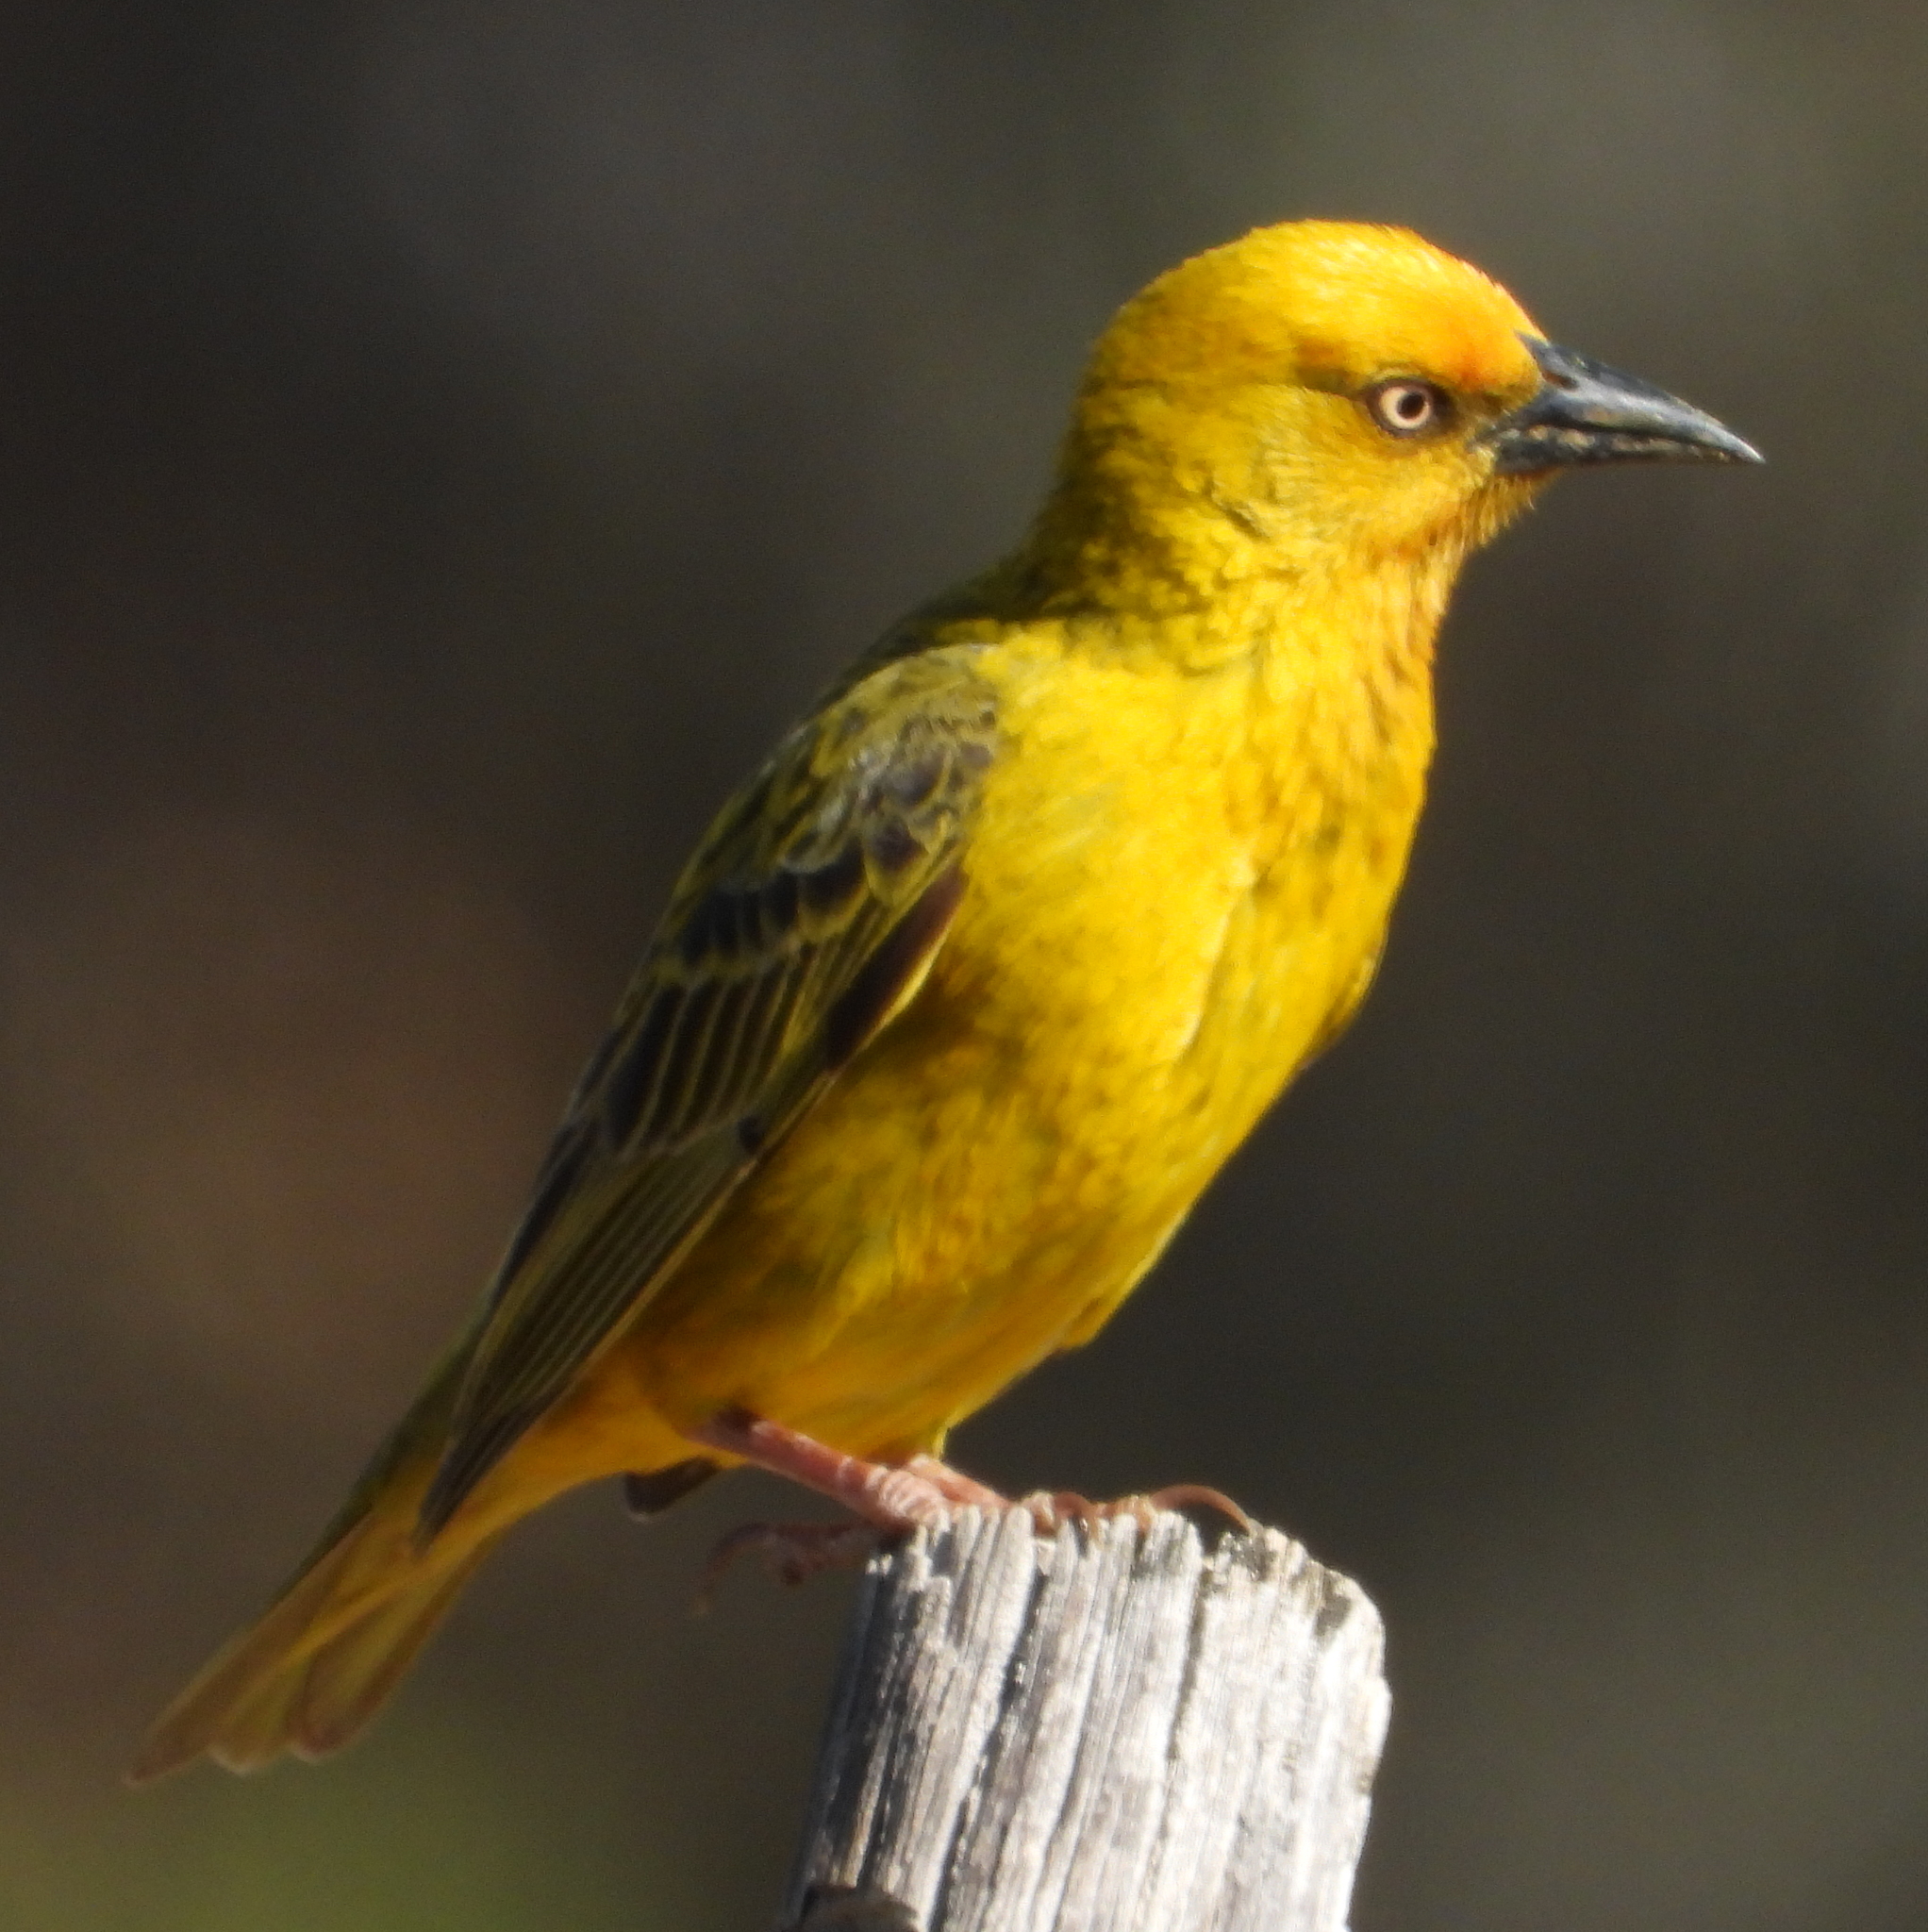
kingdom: Animalia
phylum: Chordata
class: Aves
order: Passeriformes
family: Ploceidae
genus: Ploceus
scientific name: Ploceus capensis
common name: Cape weaver
